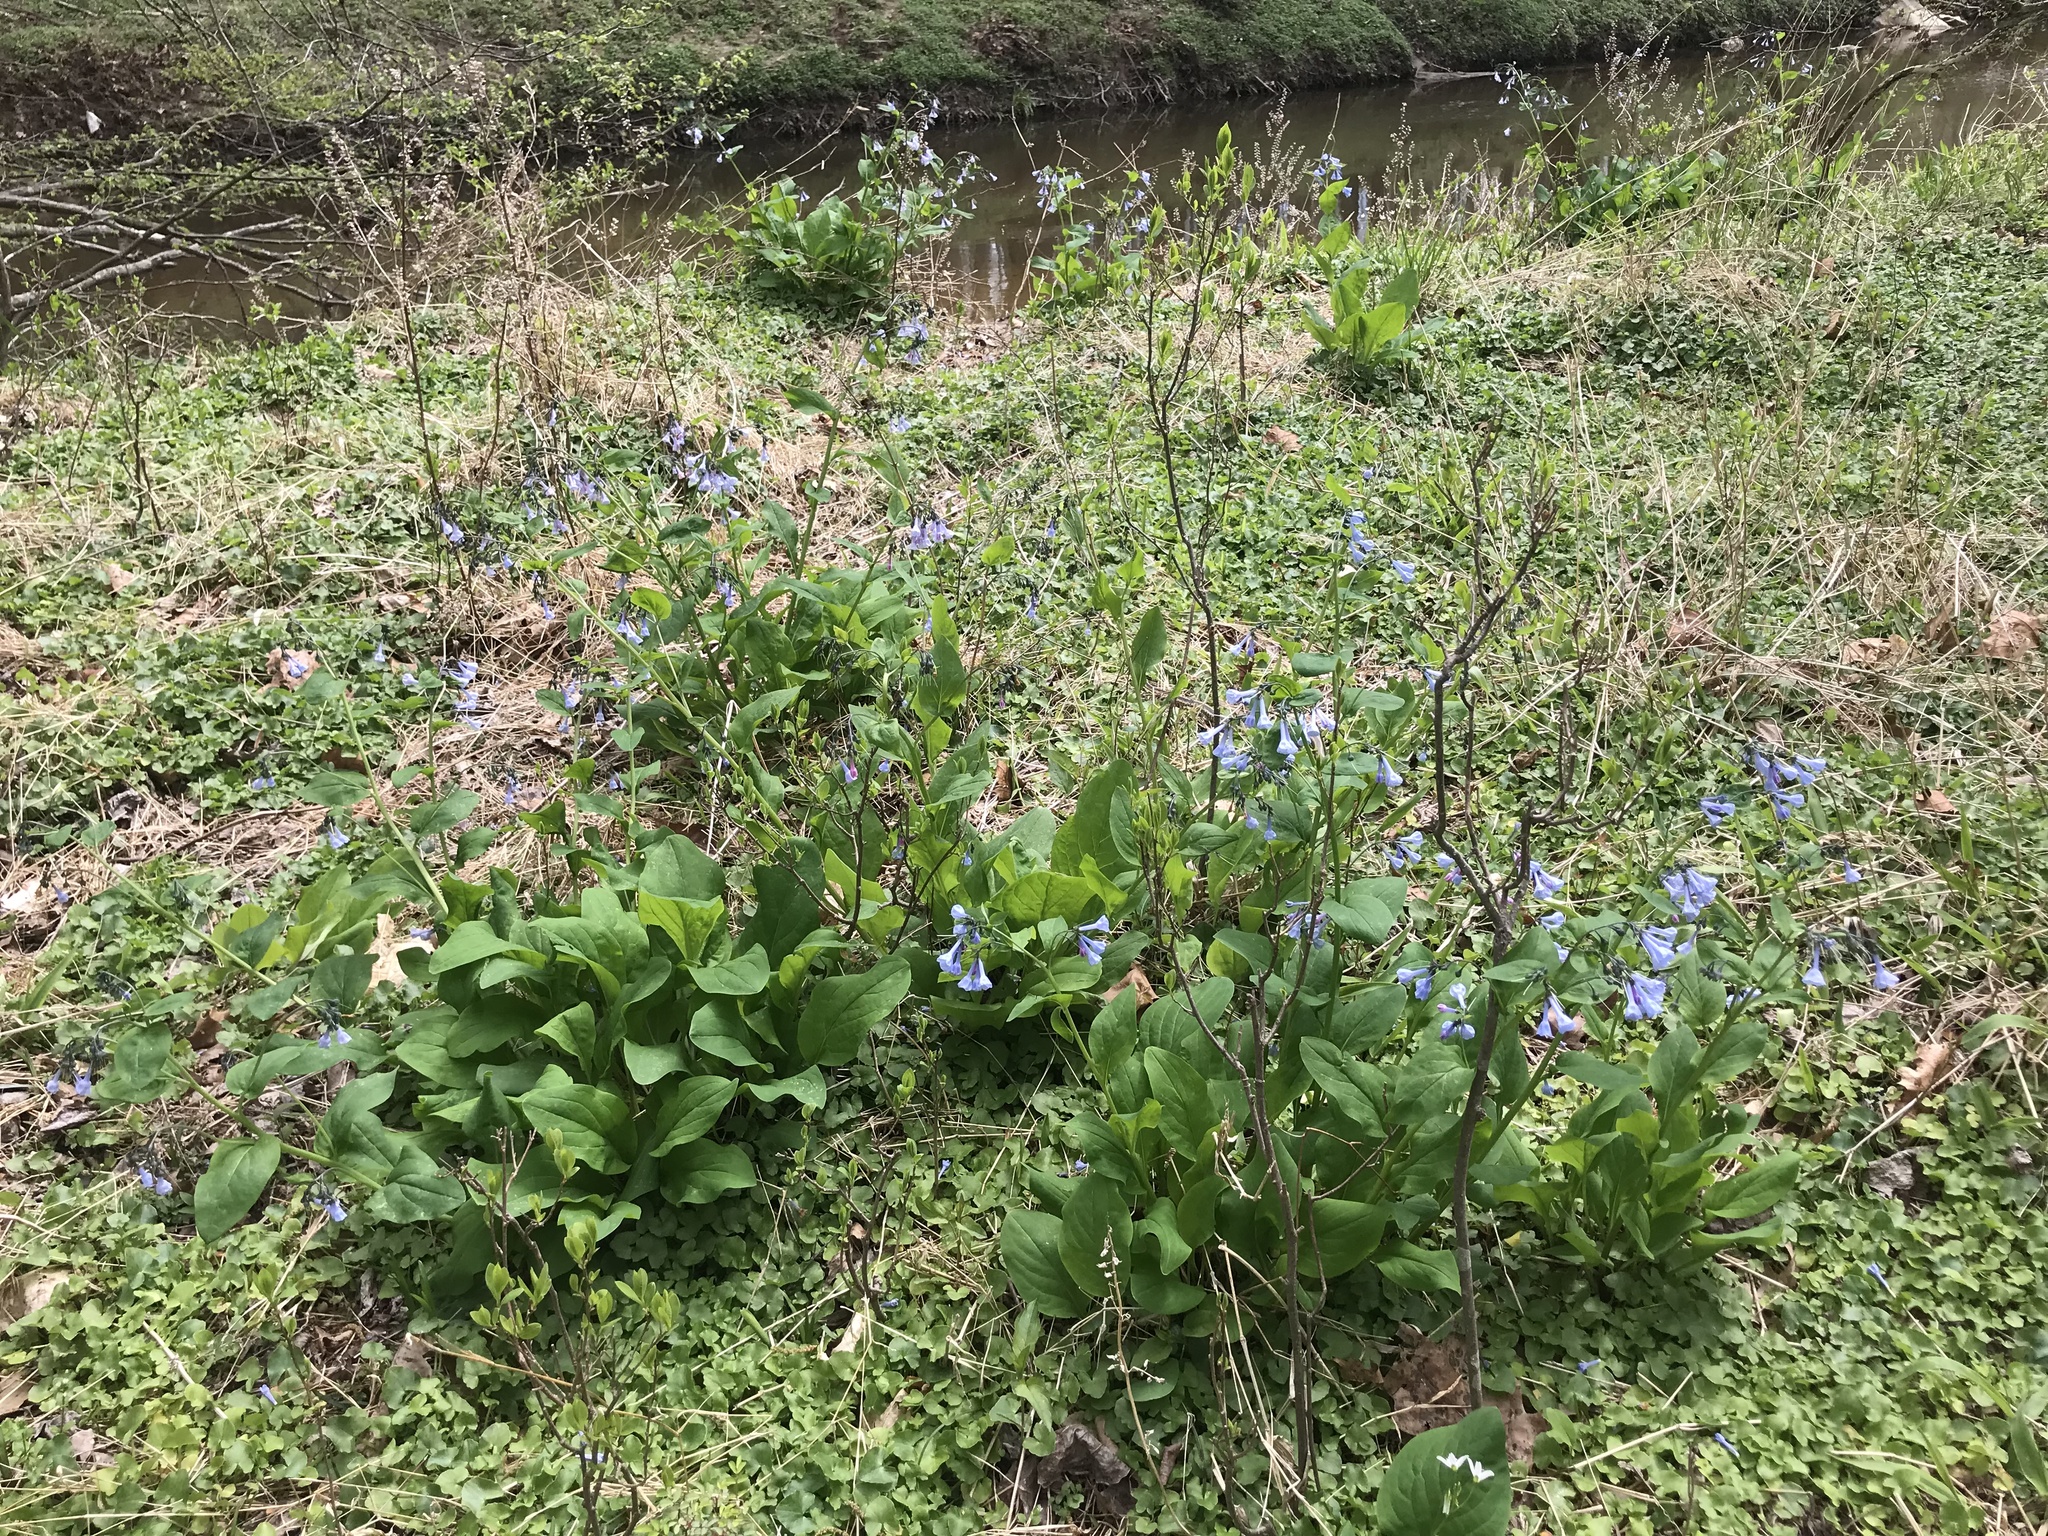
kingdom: Plantae
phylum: Tracheophyta
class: Magnoliopsida
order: Boraginales
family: Boraginaceae
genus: Mertensia
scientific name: Mertensia virginica
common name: Virginia bluebells
